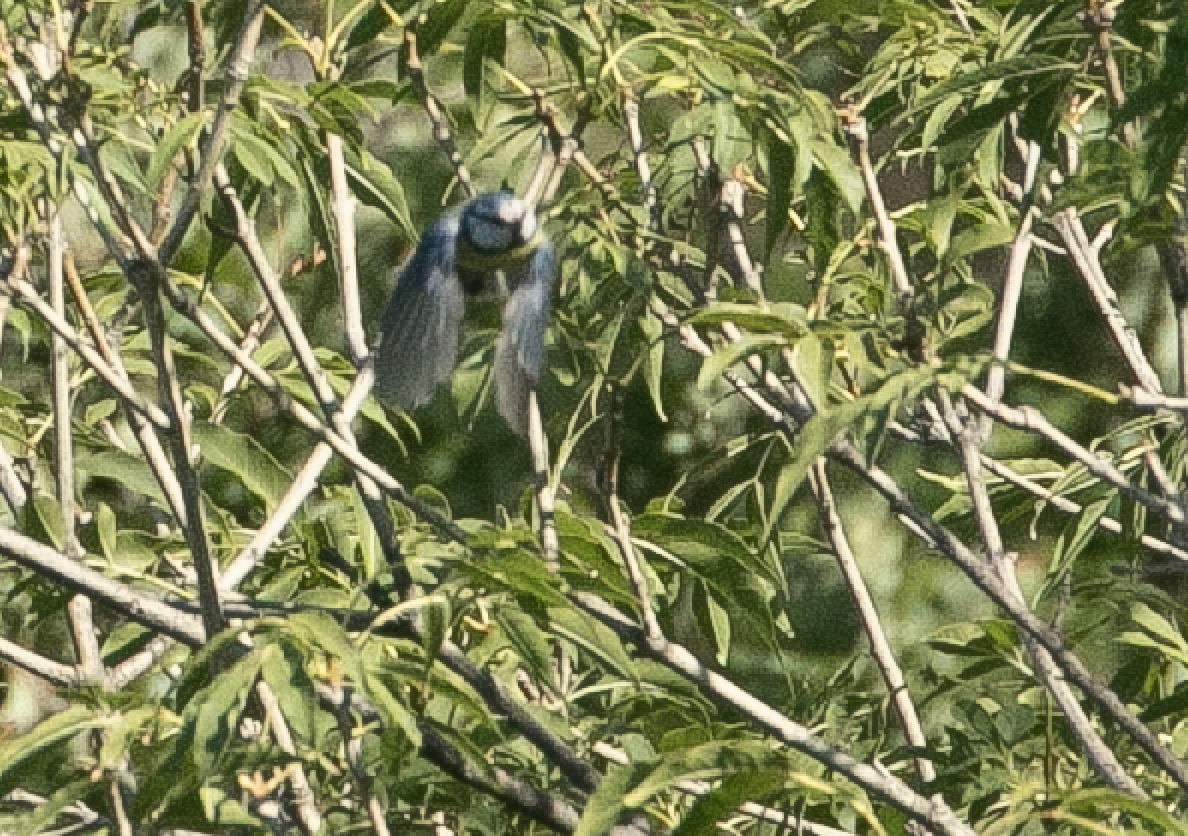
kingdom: Animalia
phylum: Chordata
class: Aves
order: Passeriformes
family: Paridae
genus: Cyanistes
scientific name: Cyanistes caeruleus
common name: Eurasian blue tit
